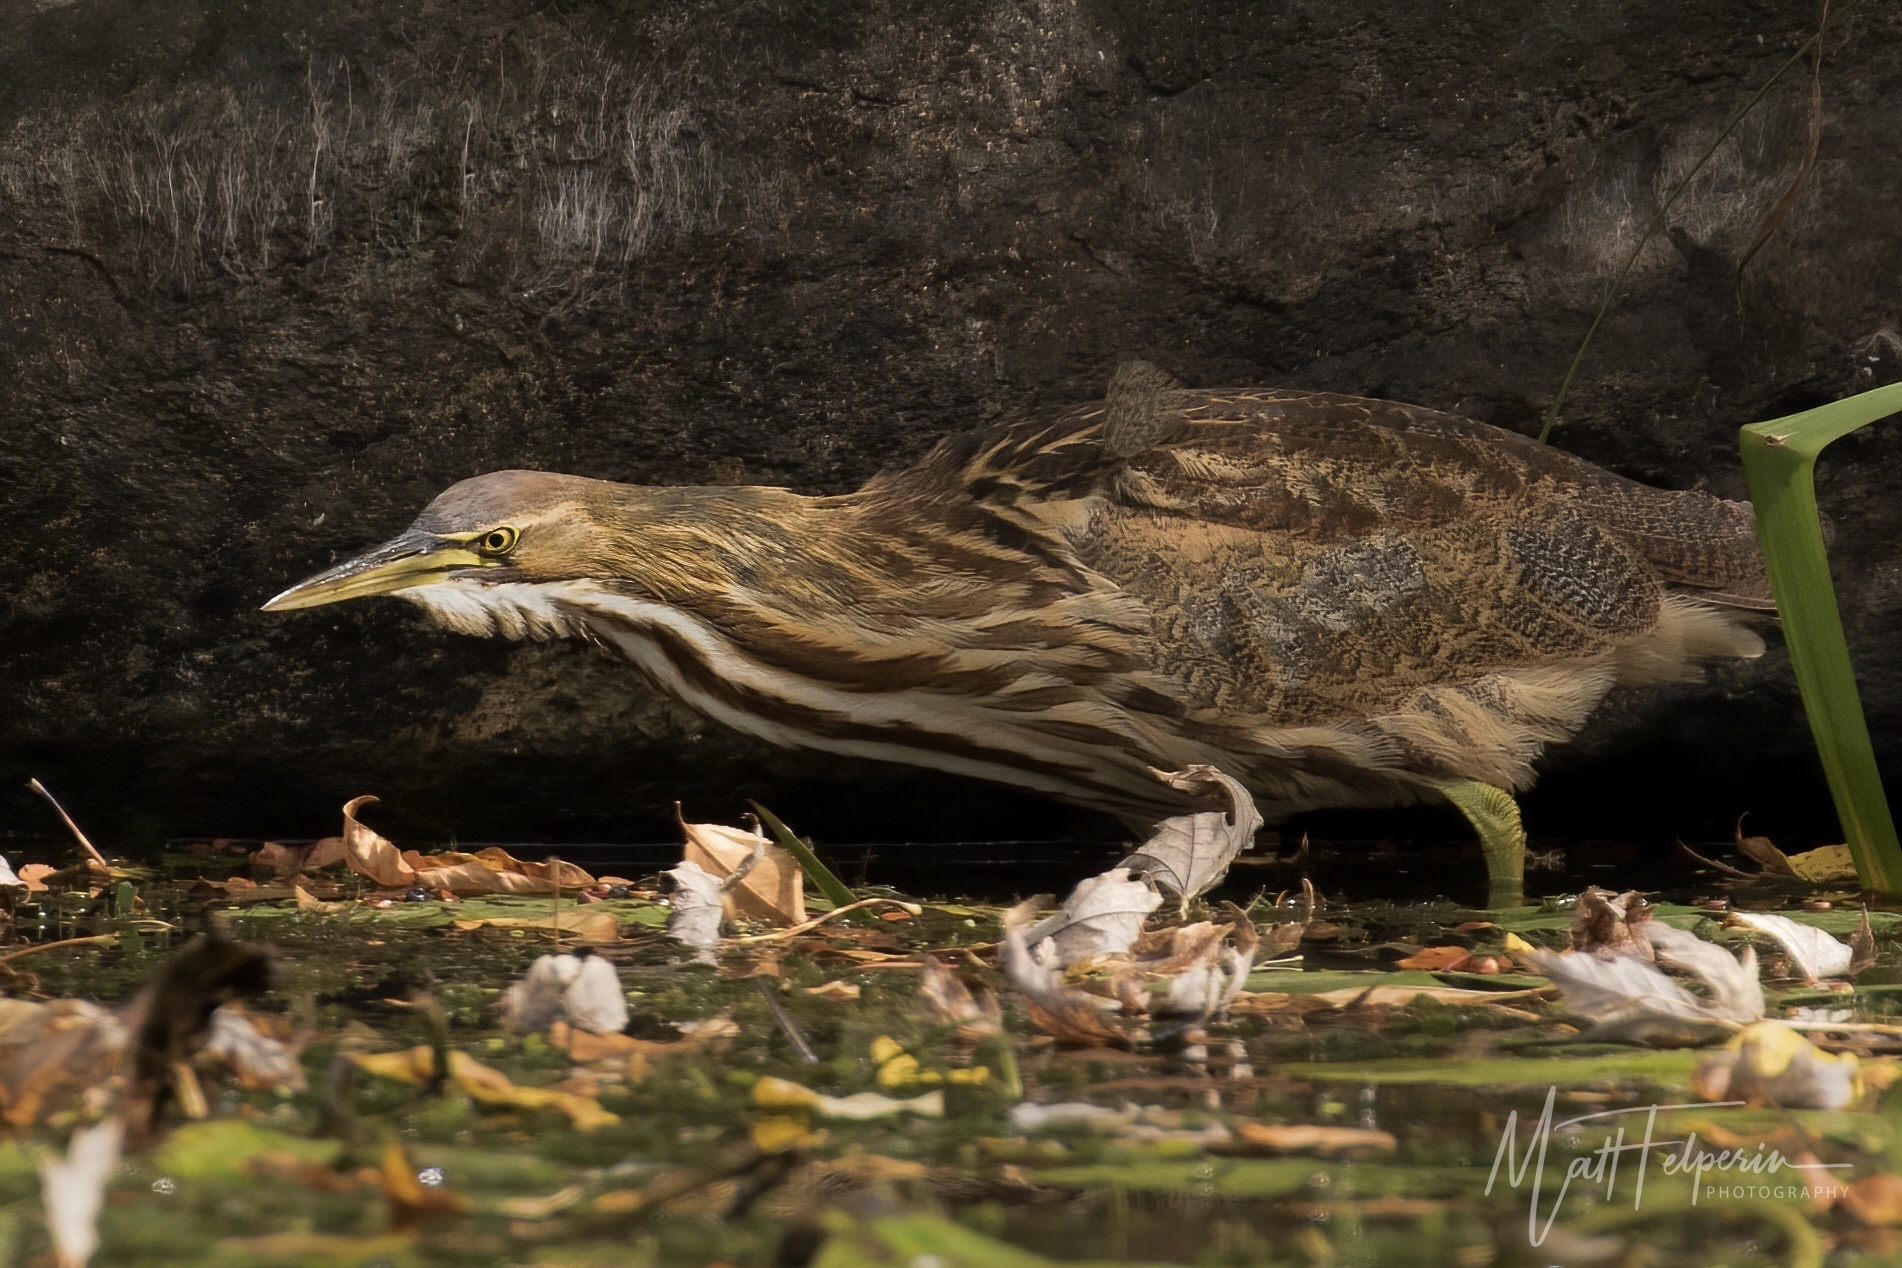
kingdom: Animalia
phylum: Chordata
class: Aves
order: Pelecaniformes
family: Ardeidae
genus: Botaurus
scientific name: Botaurus lentiginosus
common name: American bittern
